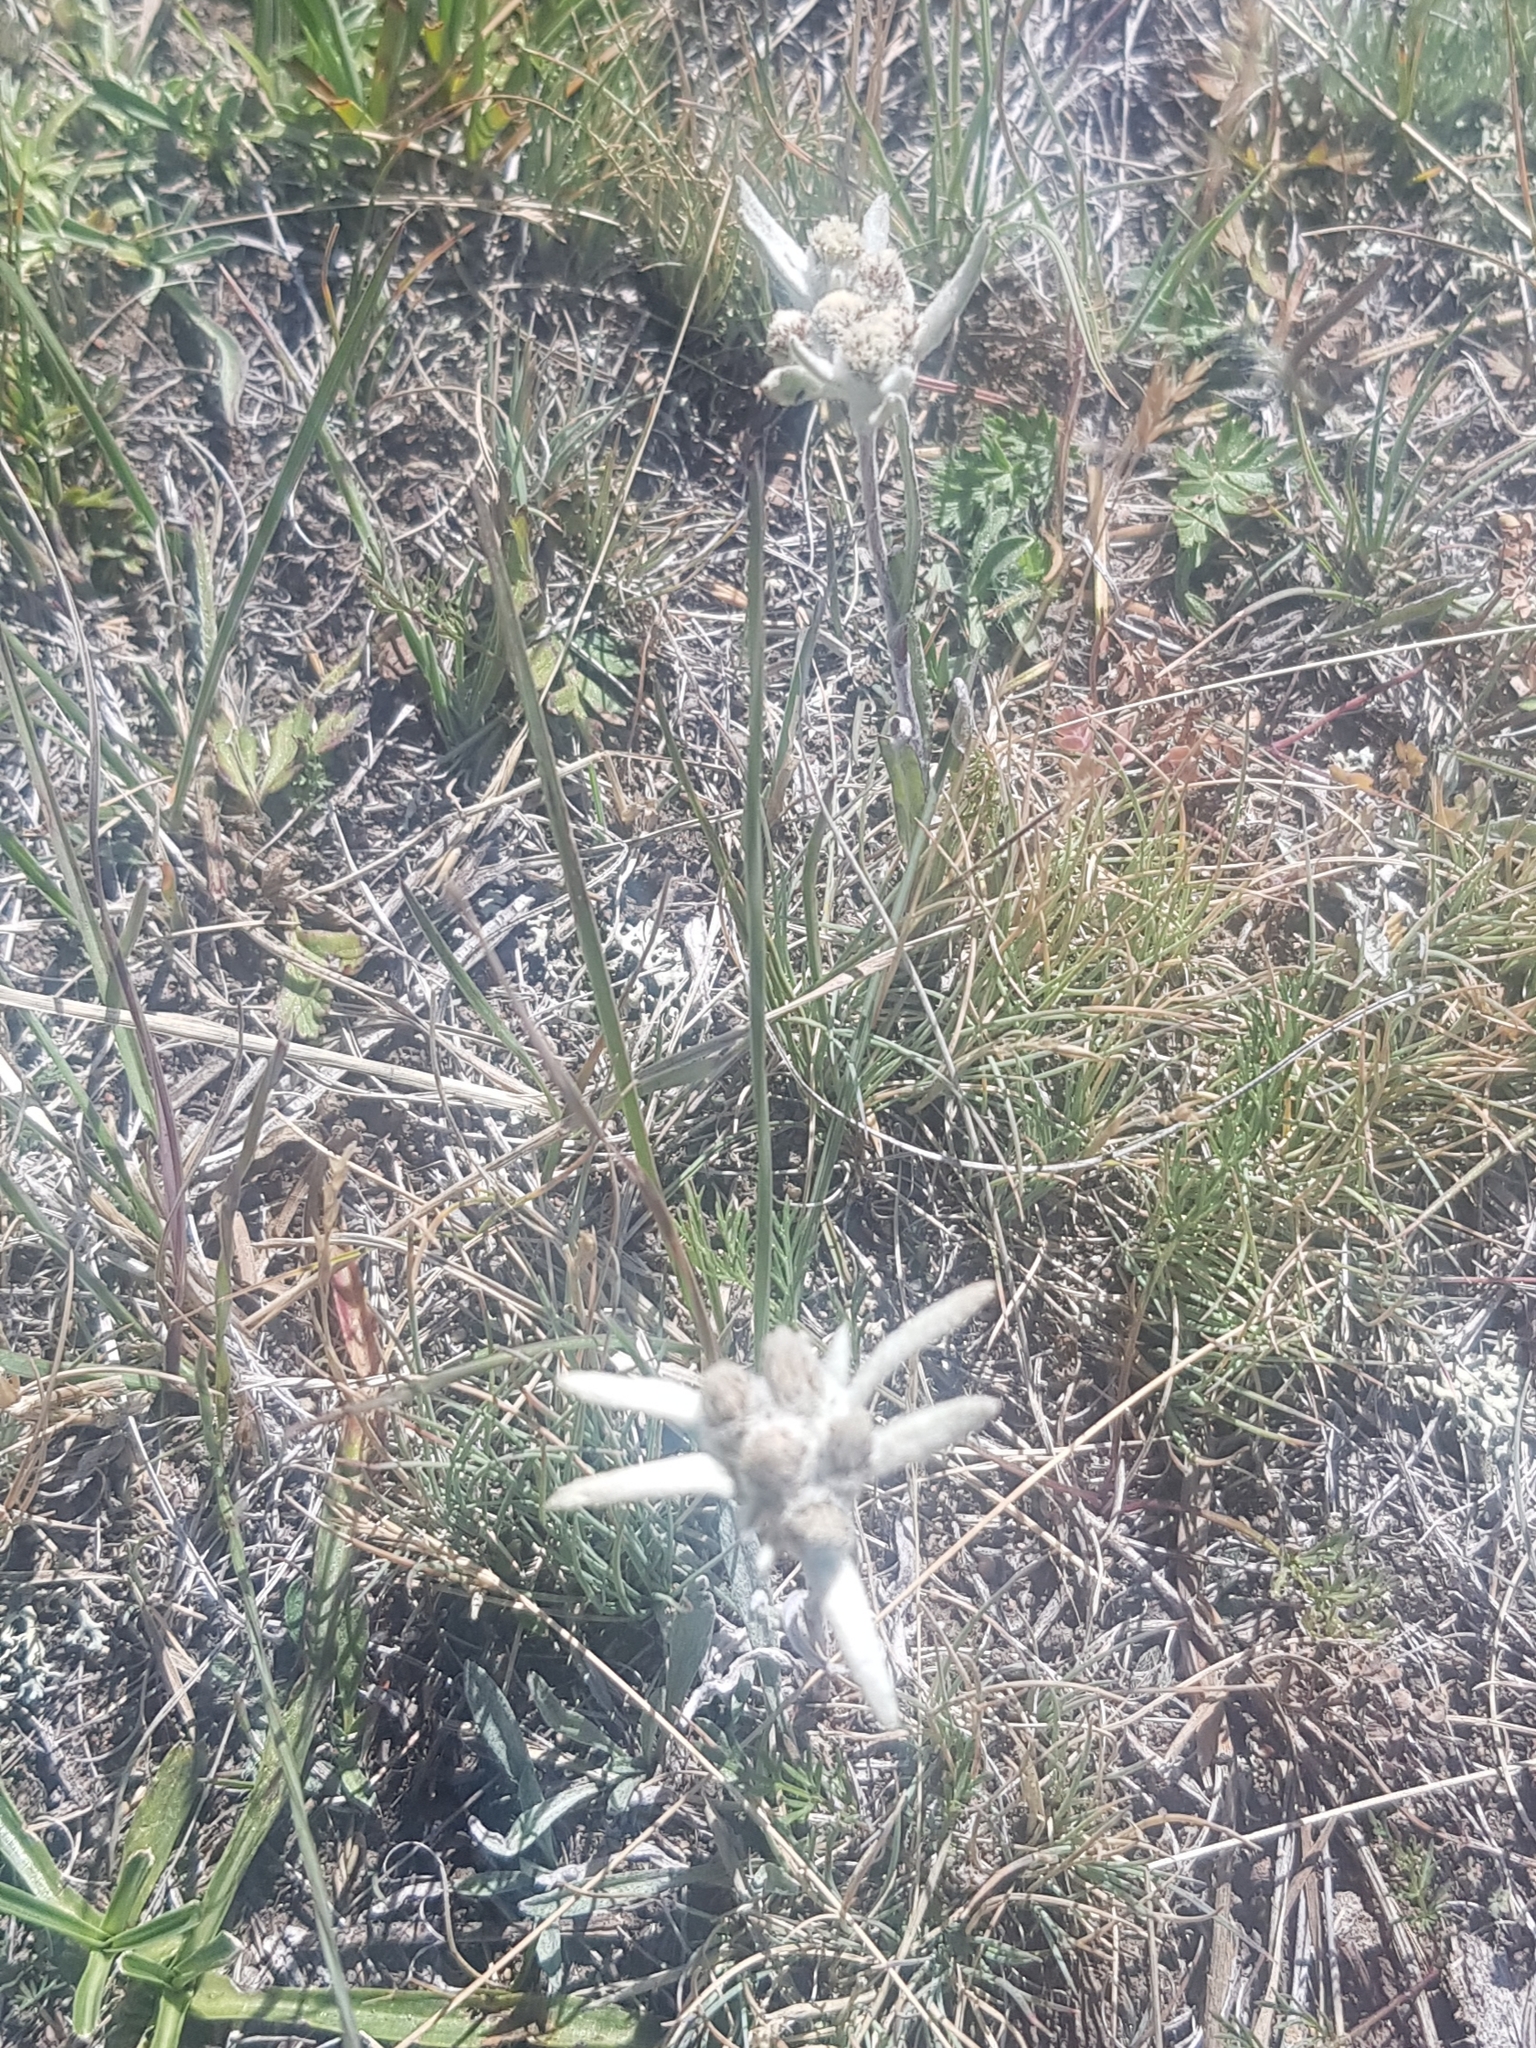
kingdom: Plantae
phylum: Tracheophyta
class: Magnoliopsida
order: Asterales
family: Asteraceae
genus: Leontopodium
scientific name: Leontopodium leontopodioides
